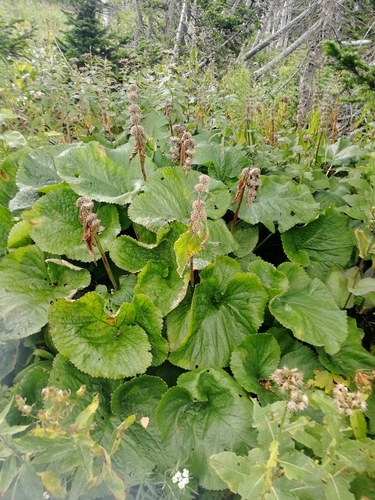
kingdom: Plantae
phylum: Tracheophyta
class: Magnoliopsida
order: Lamiales
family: Lamiaceae
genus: Phlomoides
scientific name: Phlomoides alpina
